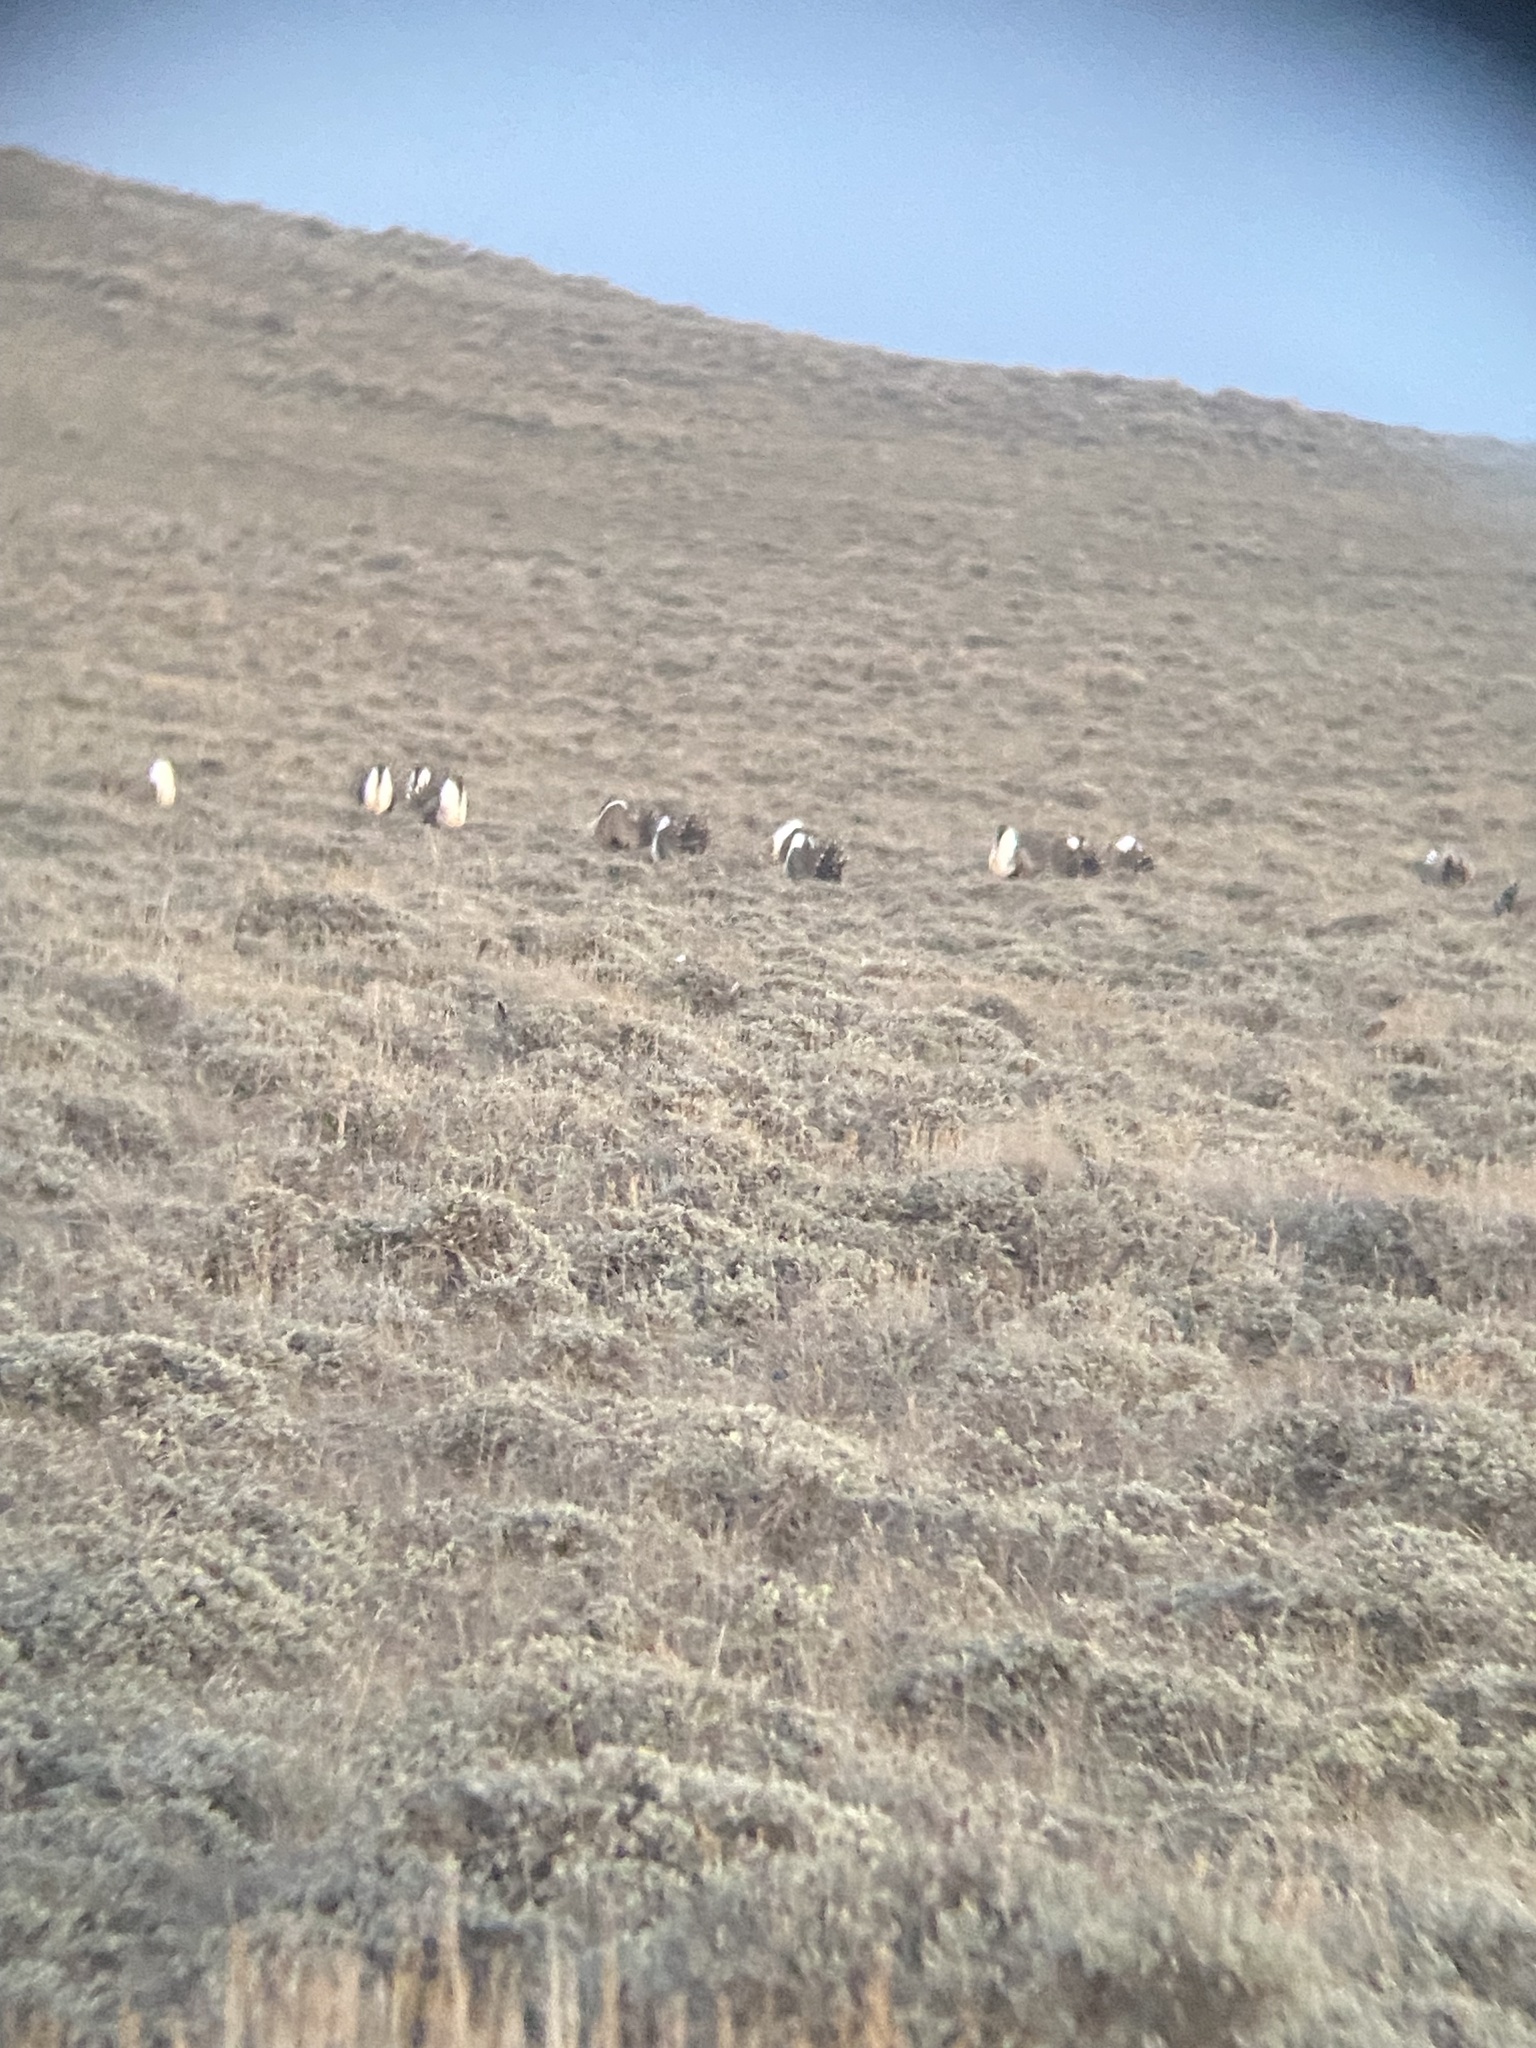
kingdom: Animalia
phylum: Chordata
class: Aves
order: Galliformes
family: Phasianidae
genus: Centrocercus
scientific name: Centrocercus urophasianus
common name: Sage grouse
